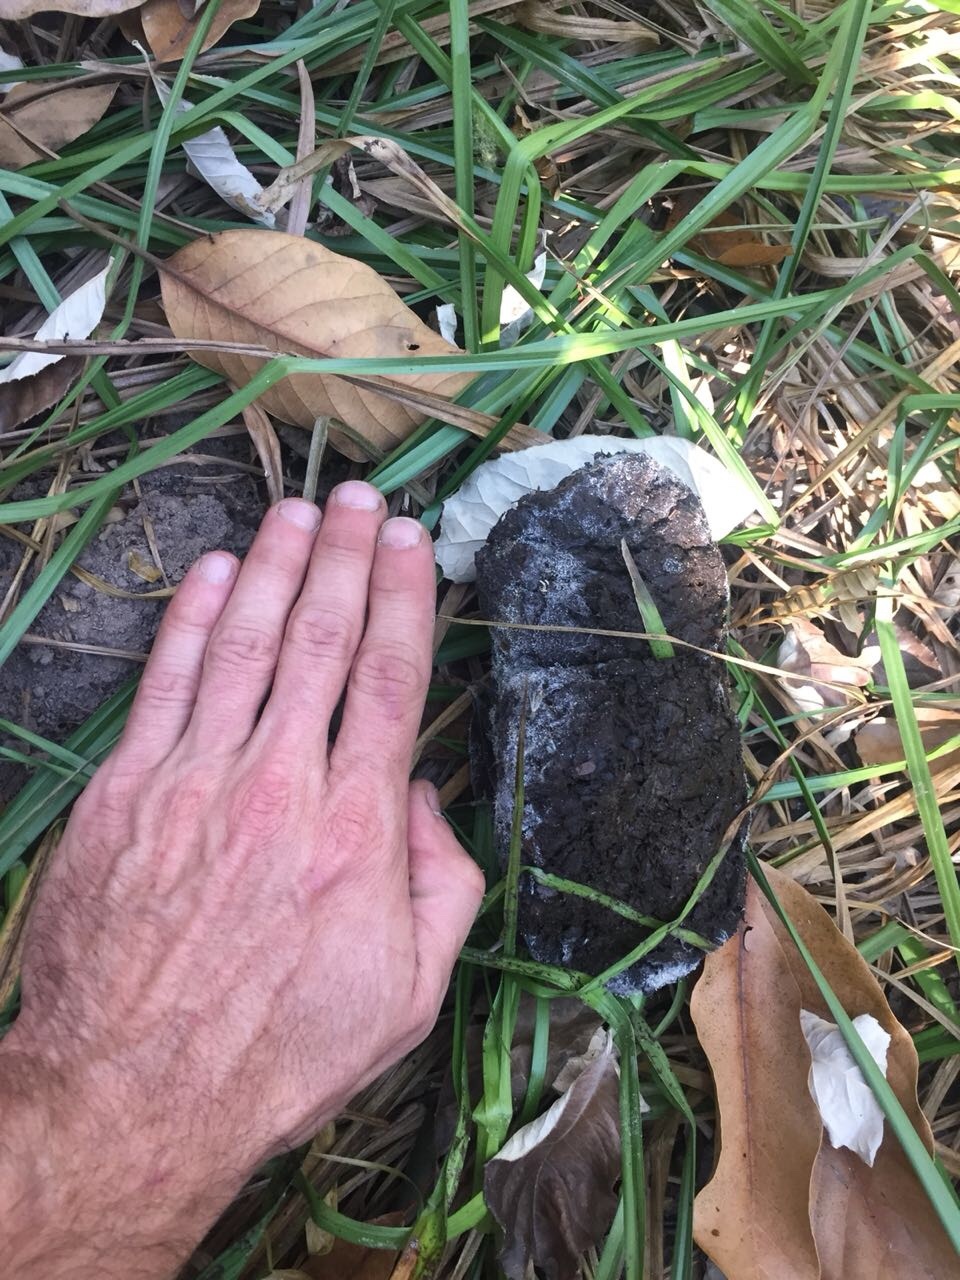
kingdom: Animalia
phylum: Chordata
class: Mammalia
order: Artiodactyla
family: Suidae
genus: Potamochoerus
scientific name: Potamochoerus larvatus
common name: Bushpig
